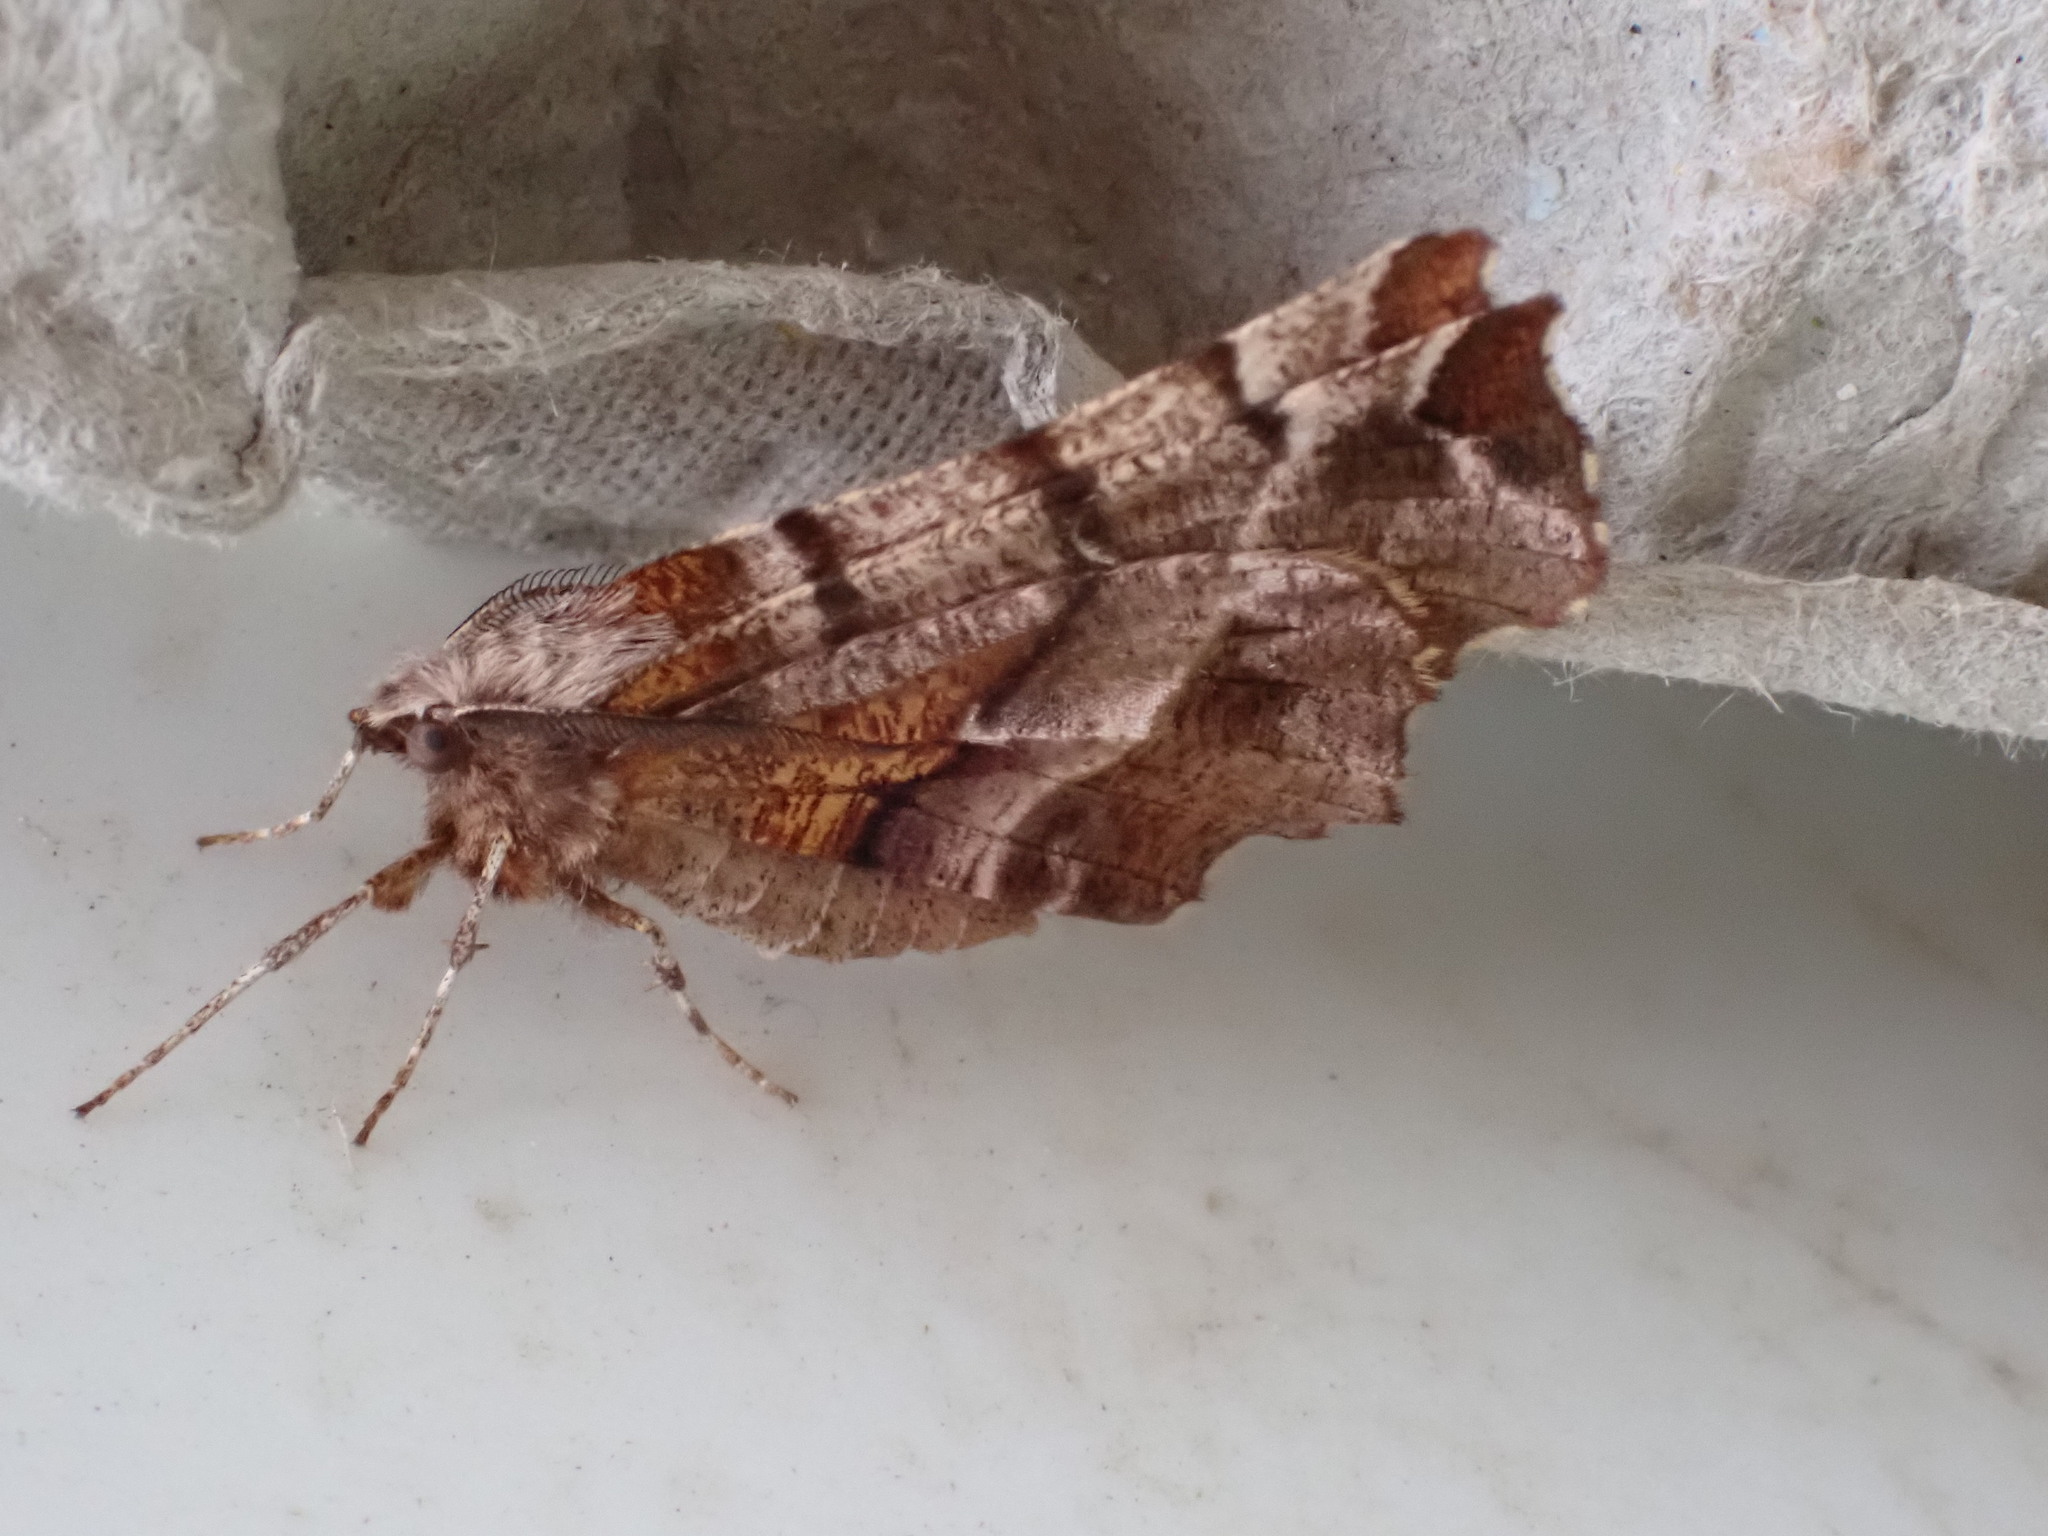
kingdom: Animalia
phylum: Arthropoda
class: Insecta
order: Lepidoptera
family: Geometridae
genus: Selenia
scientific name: Selenia dentaria
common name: Early thorn
